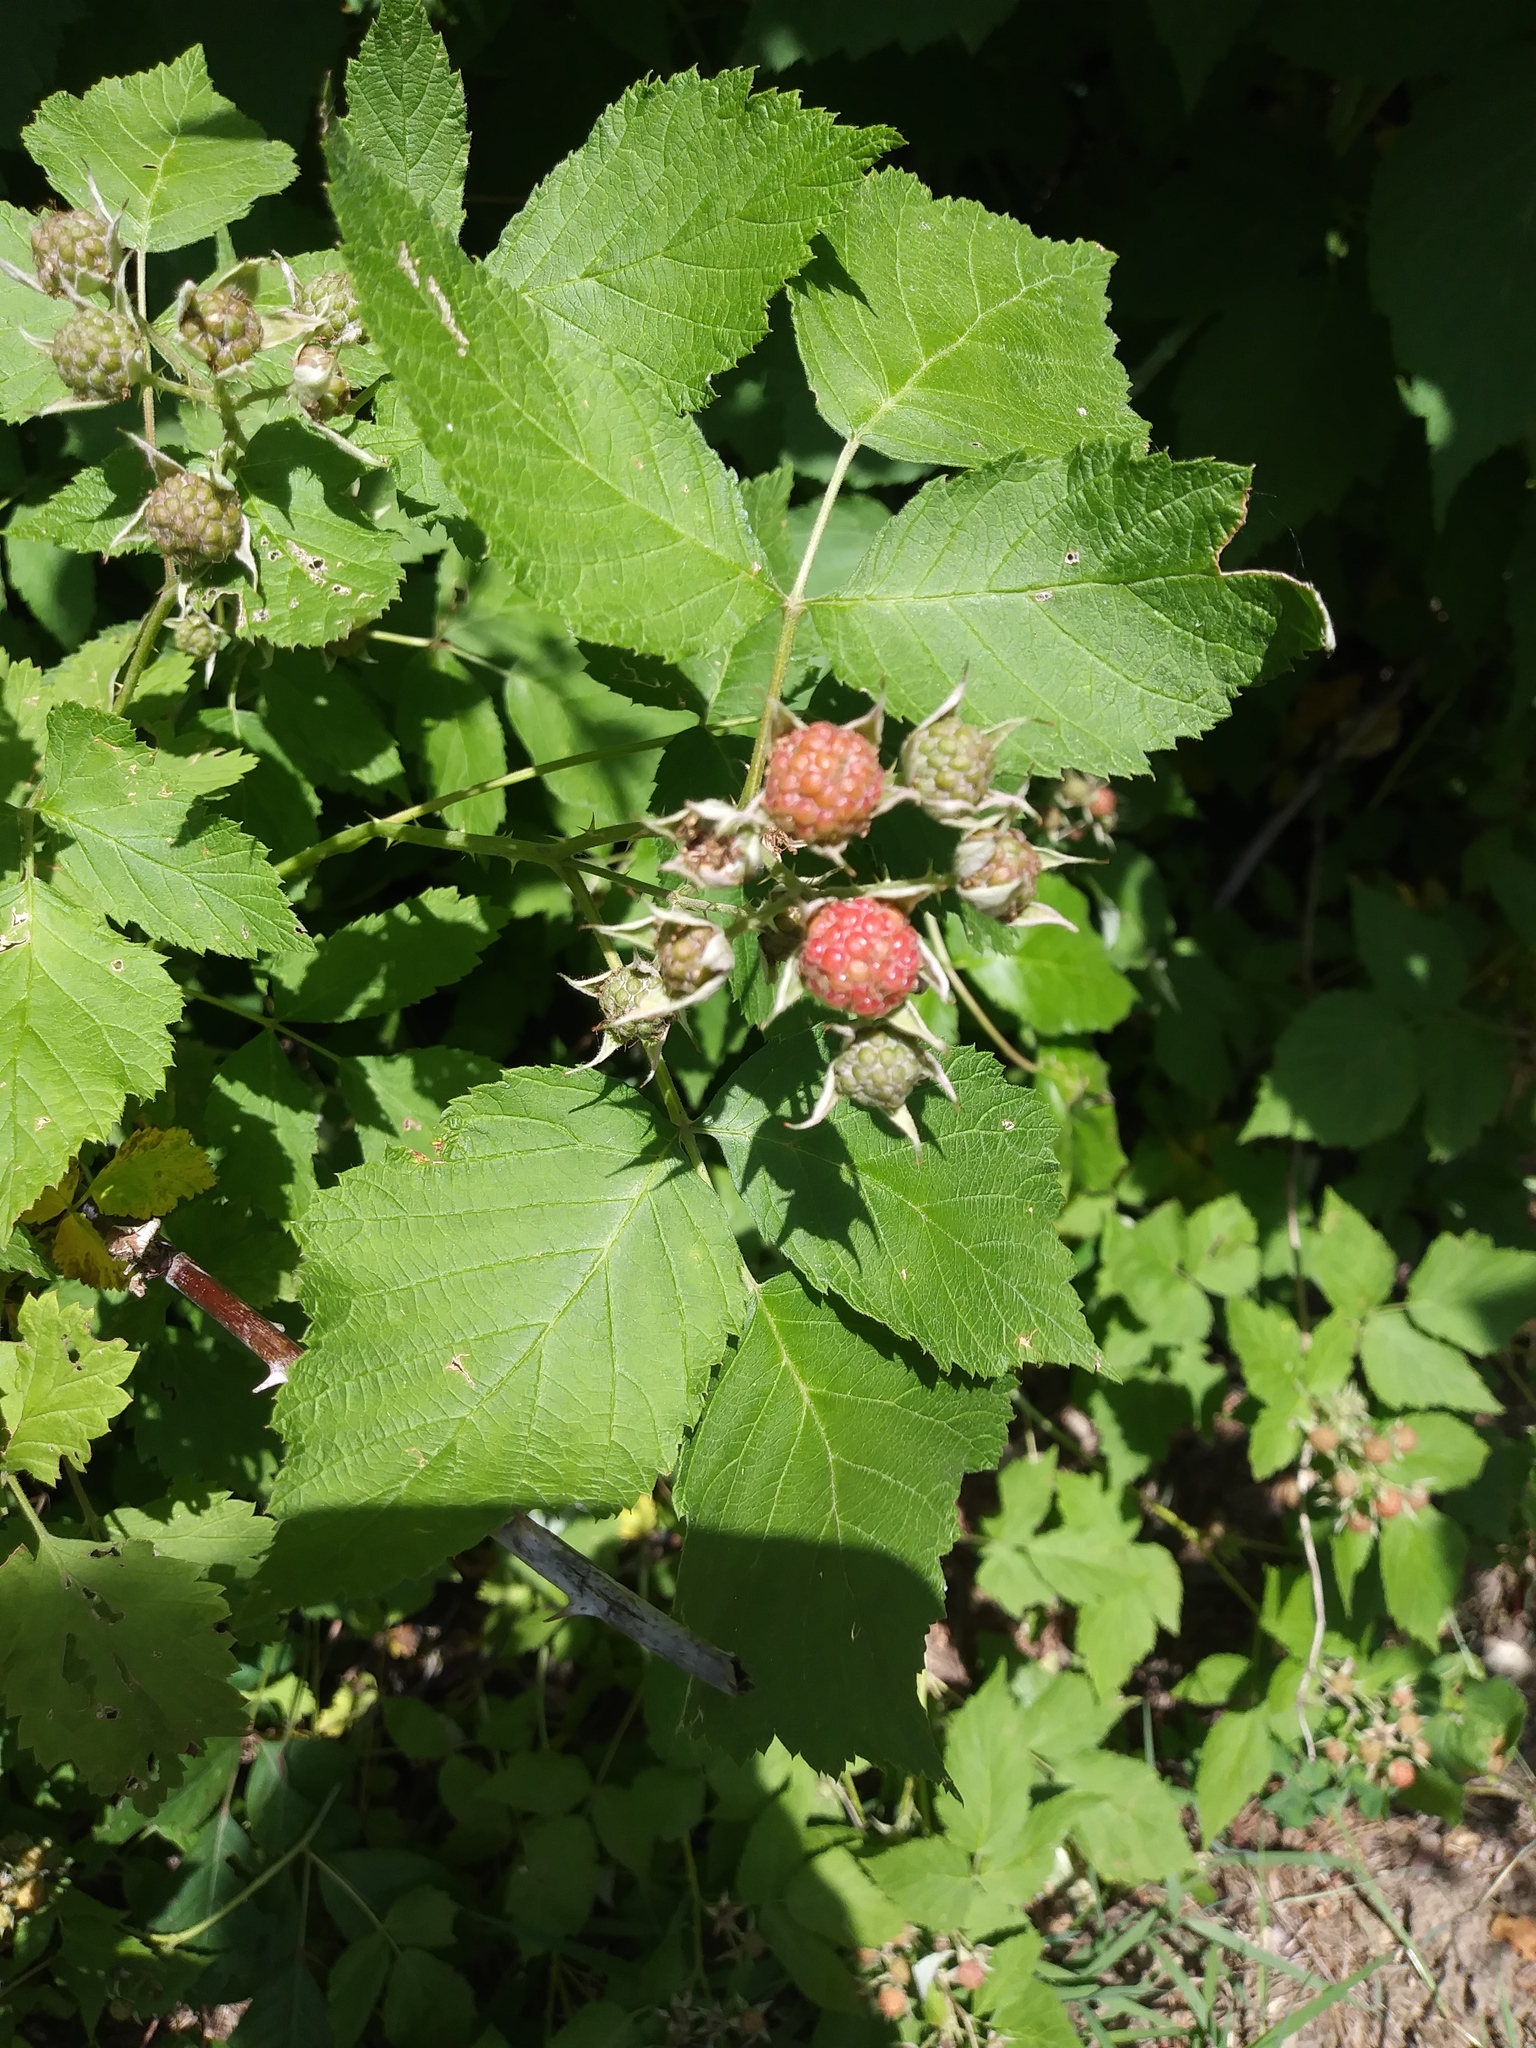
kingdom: Plantae
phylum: Tracheophyta
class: Magnoliopsida
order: Rosales
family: Rosaceae
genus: Rubus
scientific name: Rubus occidentalis
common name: Black raspberry
